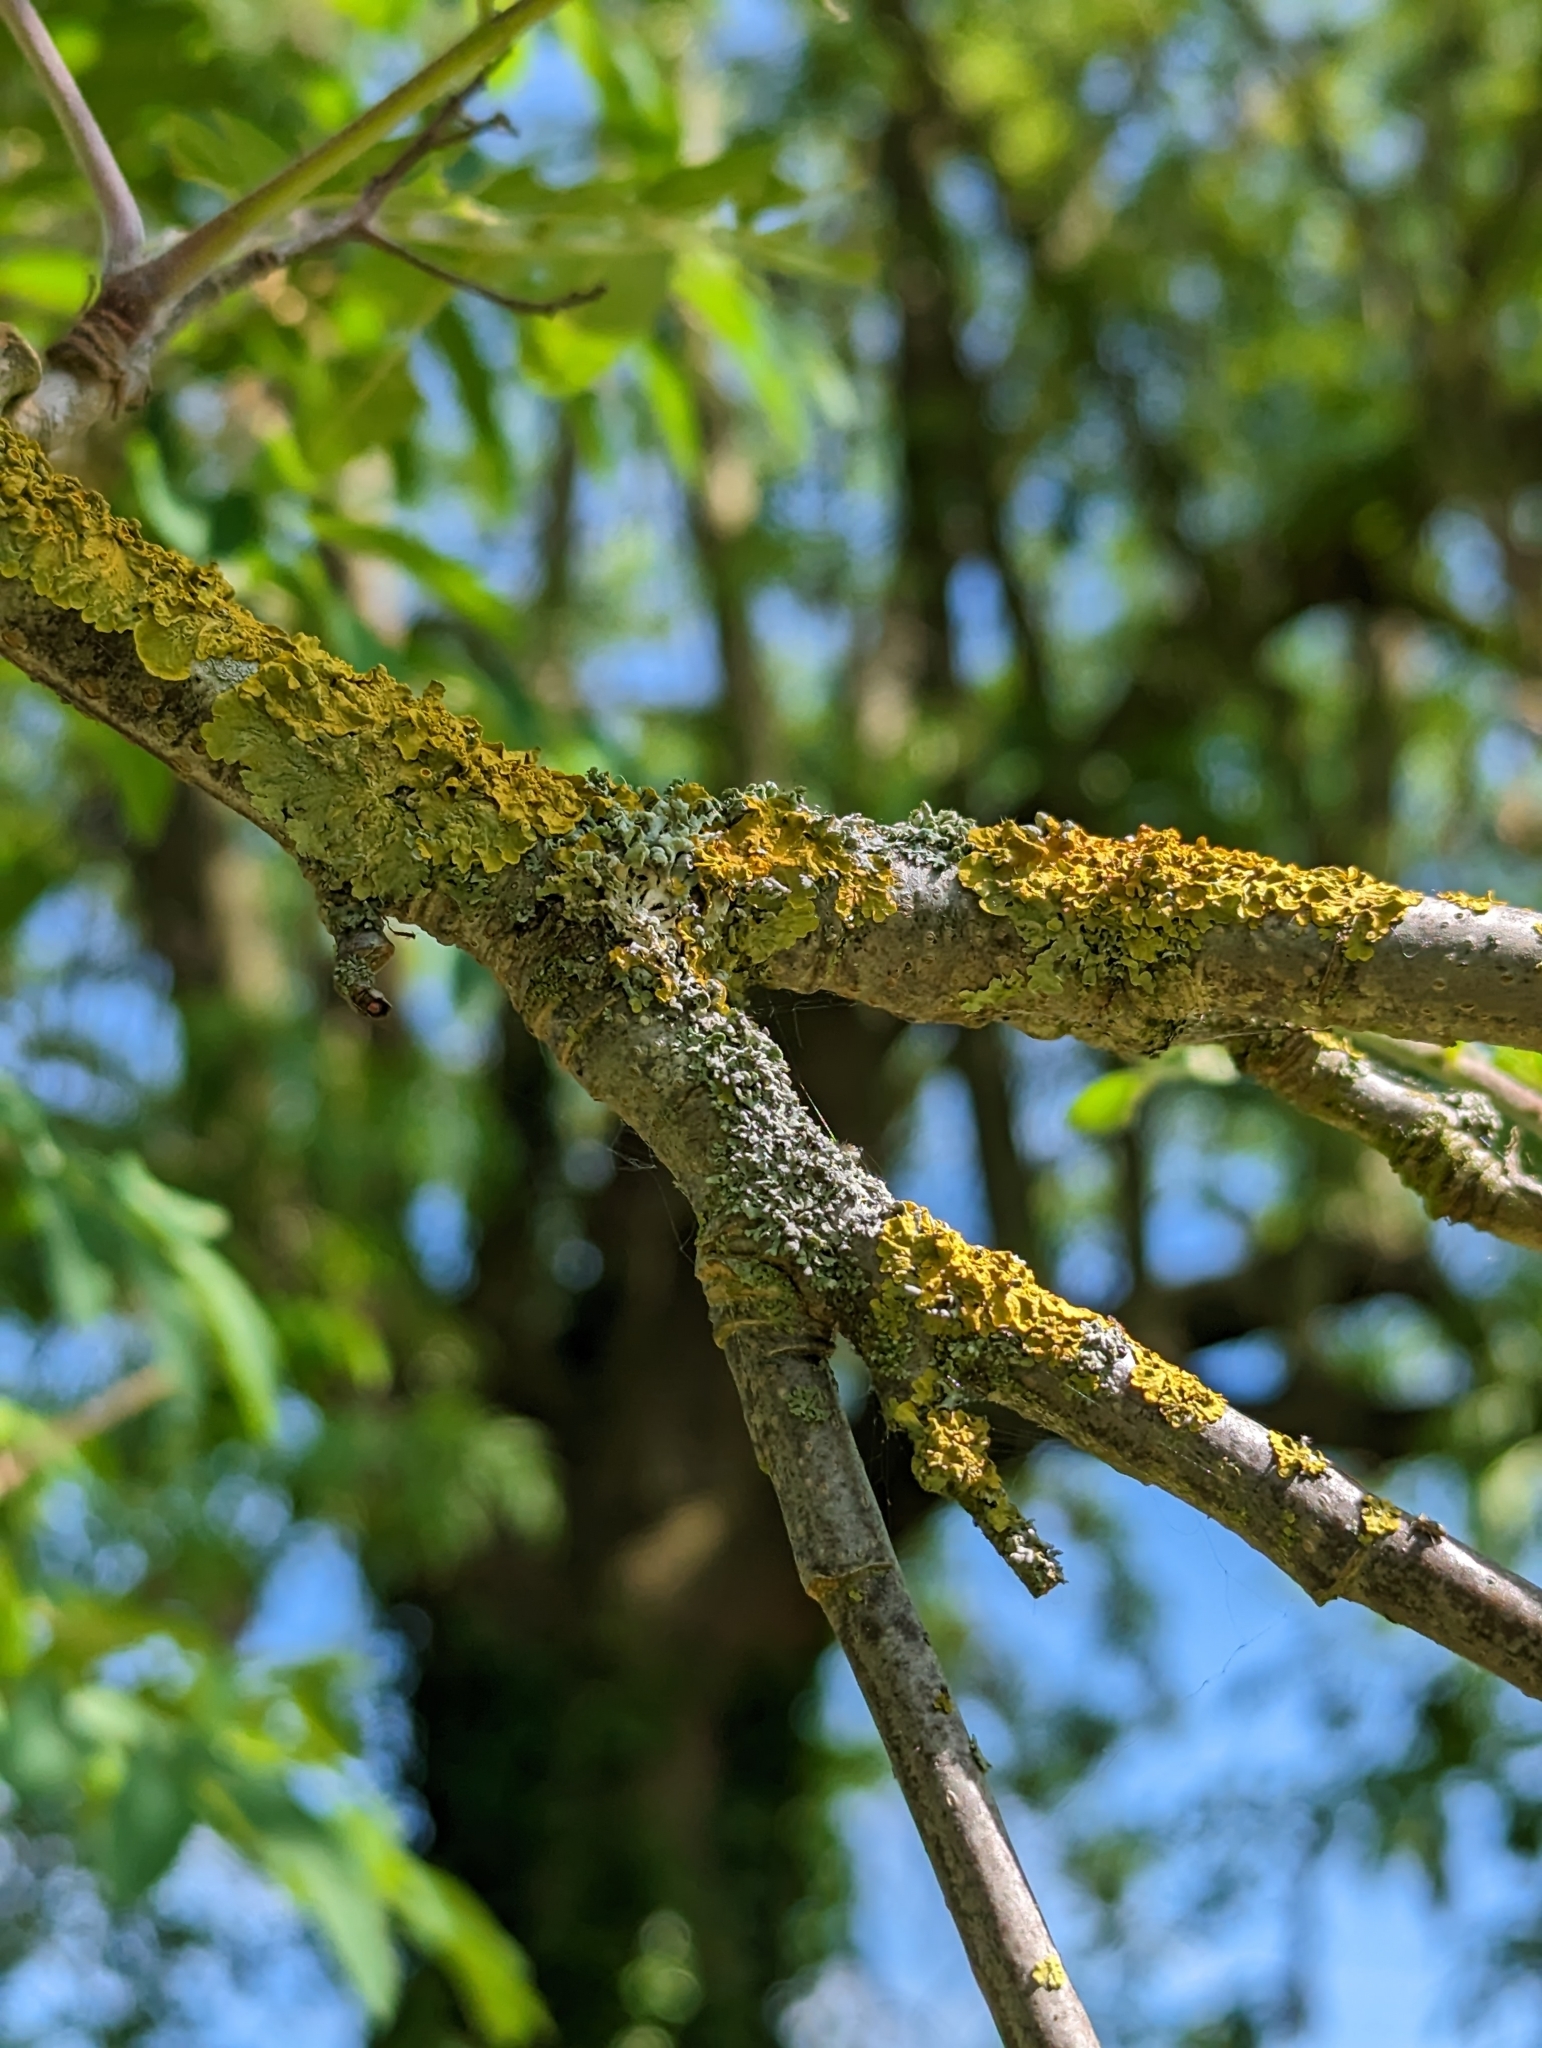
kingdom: Fungi
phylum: Ascomycota
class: Lecanoromycetes
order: Teloschistales
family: Teloschistaceae
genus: Xanthoria
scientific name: Xanthoria parietina
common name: Common orange lichen
